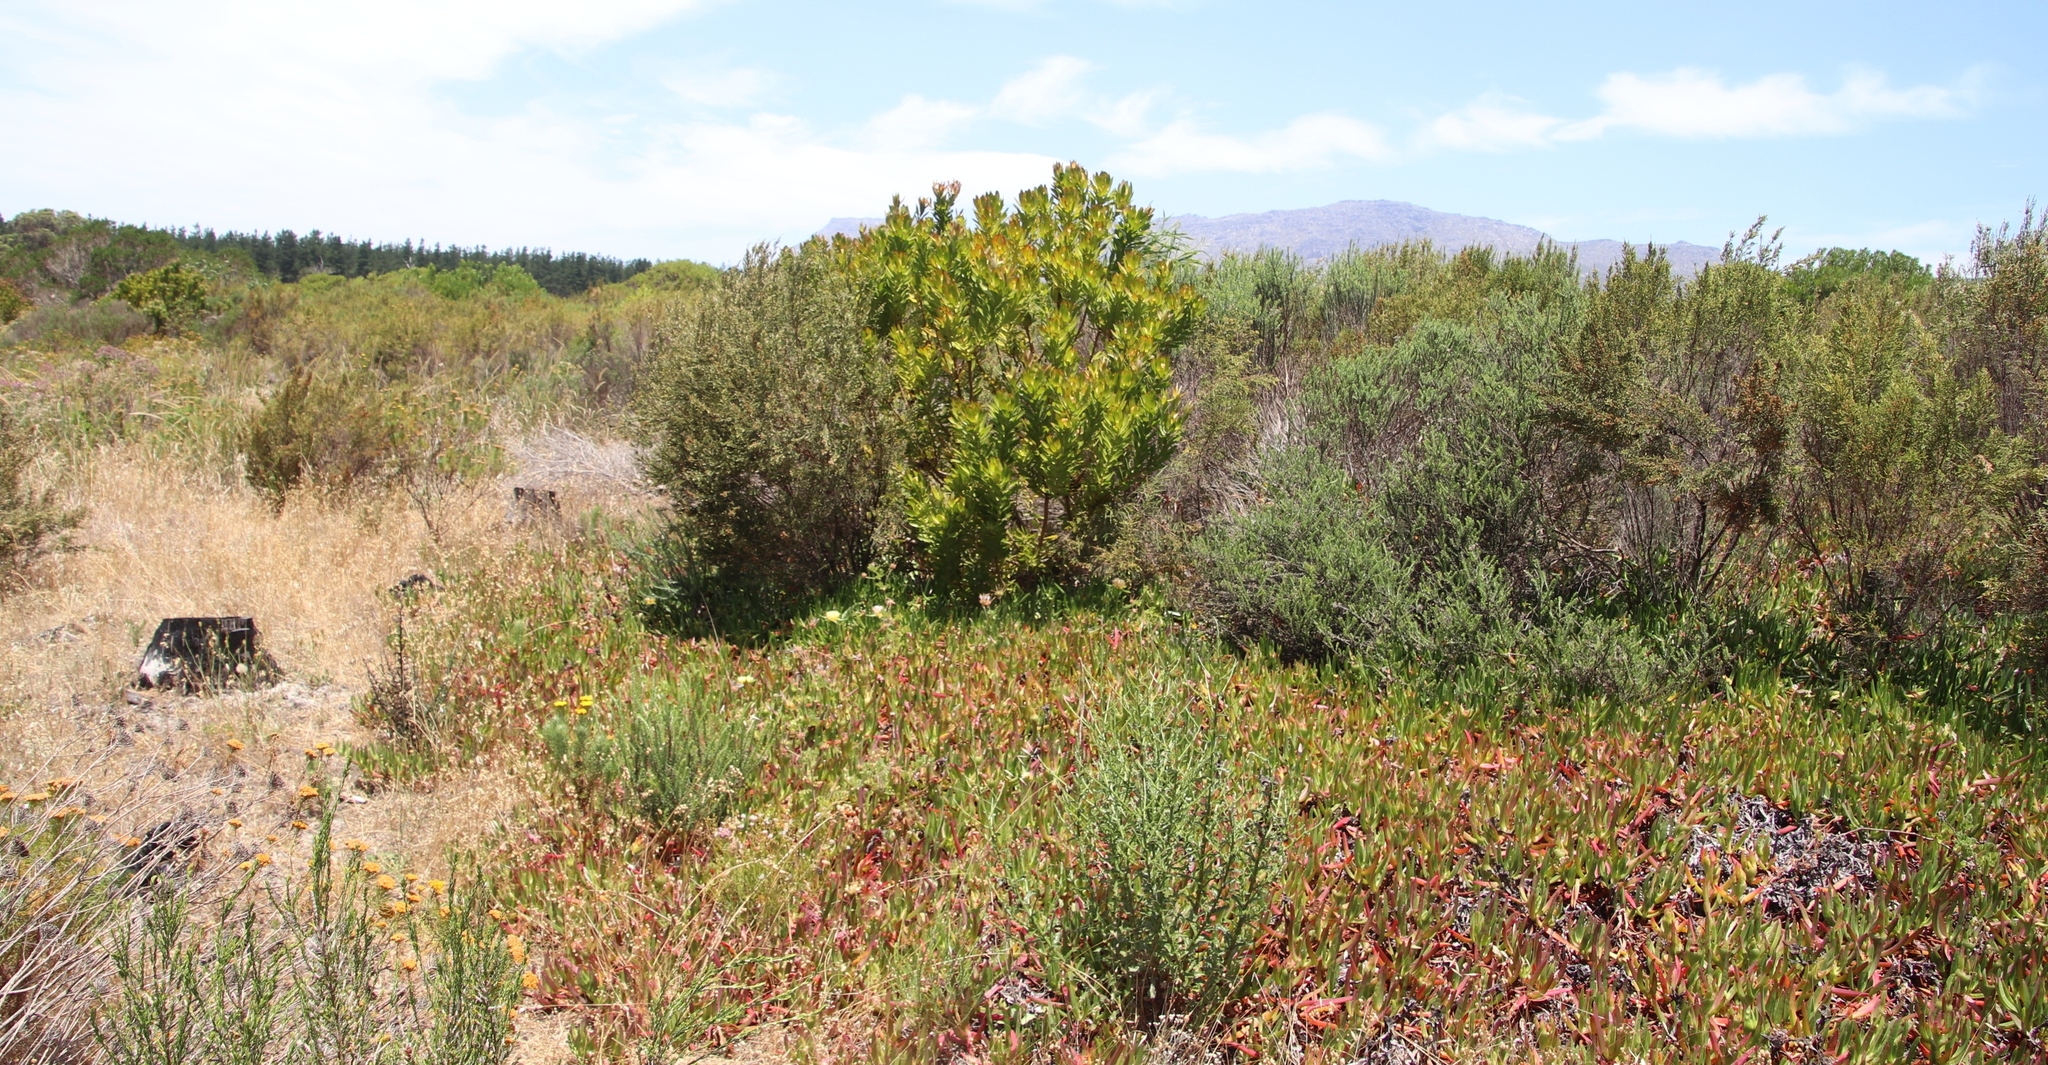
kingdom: Plantae
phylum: Tracheophyta
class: Magnoliopsida
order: Proteales
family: Proteaceae
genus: Leucadendron
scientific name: Leucadendron laureolum
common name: Golden sunshinebush
